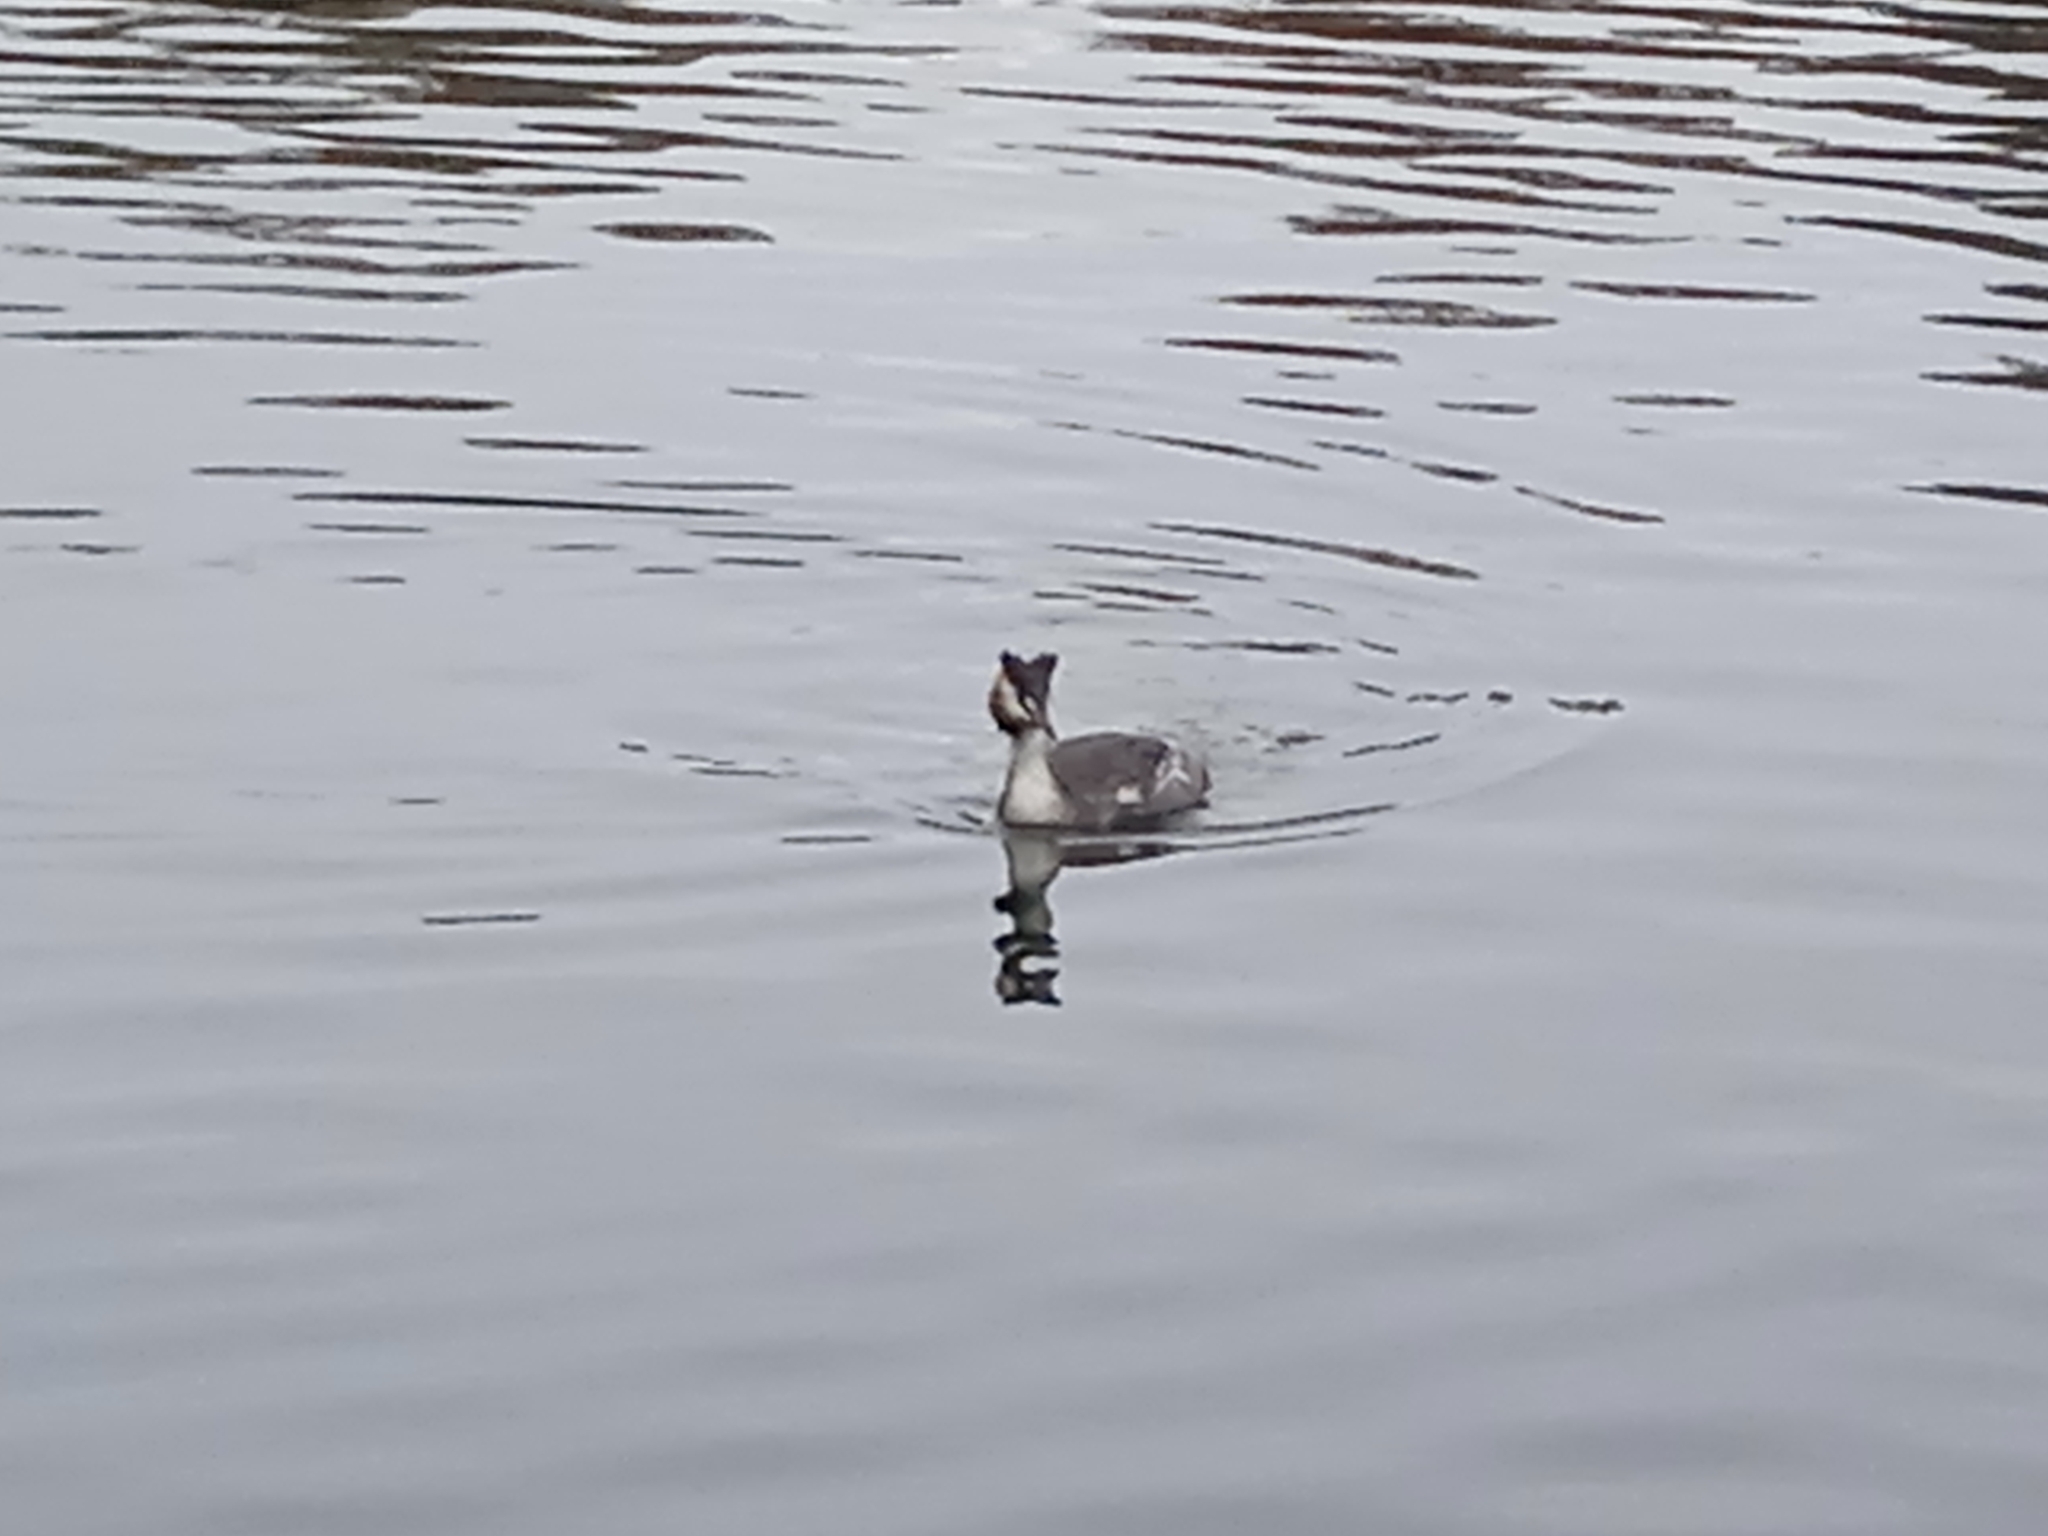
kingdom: Animalia
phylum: Chordata
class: Aves
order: Podicipediformes
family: Podicipedidae
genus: Podiceps
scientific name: Podiceps cristatus
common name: Great crested grebe
